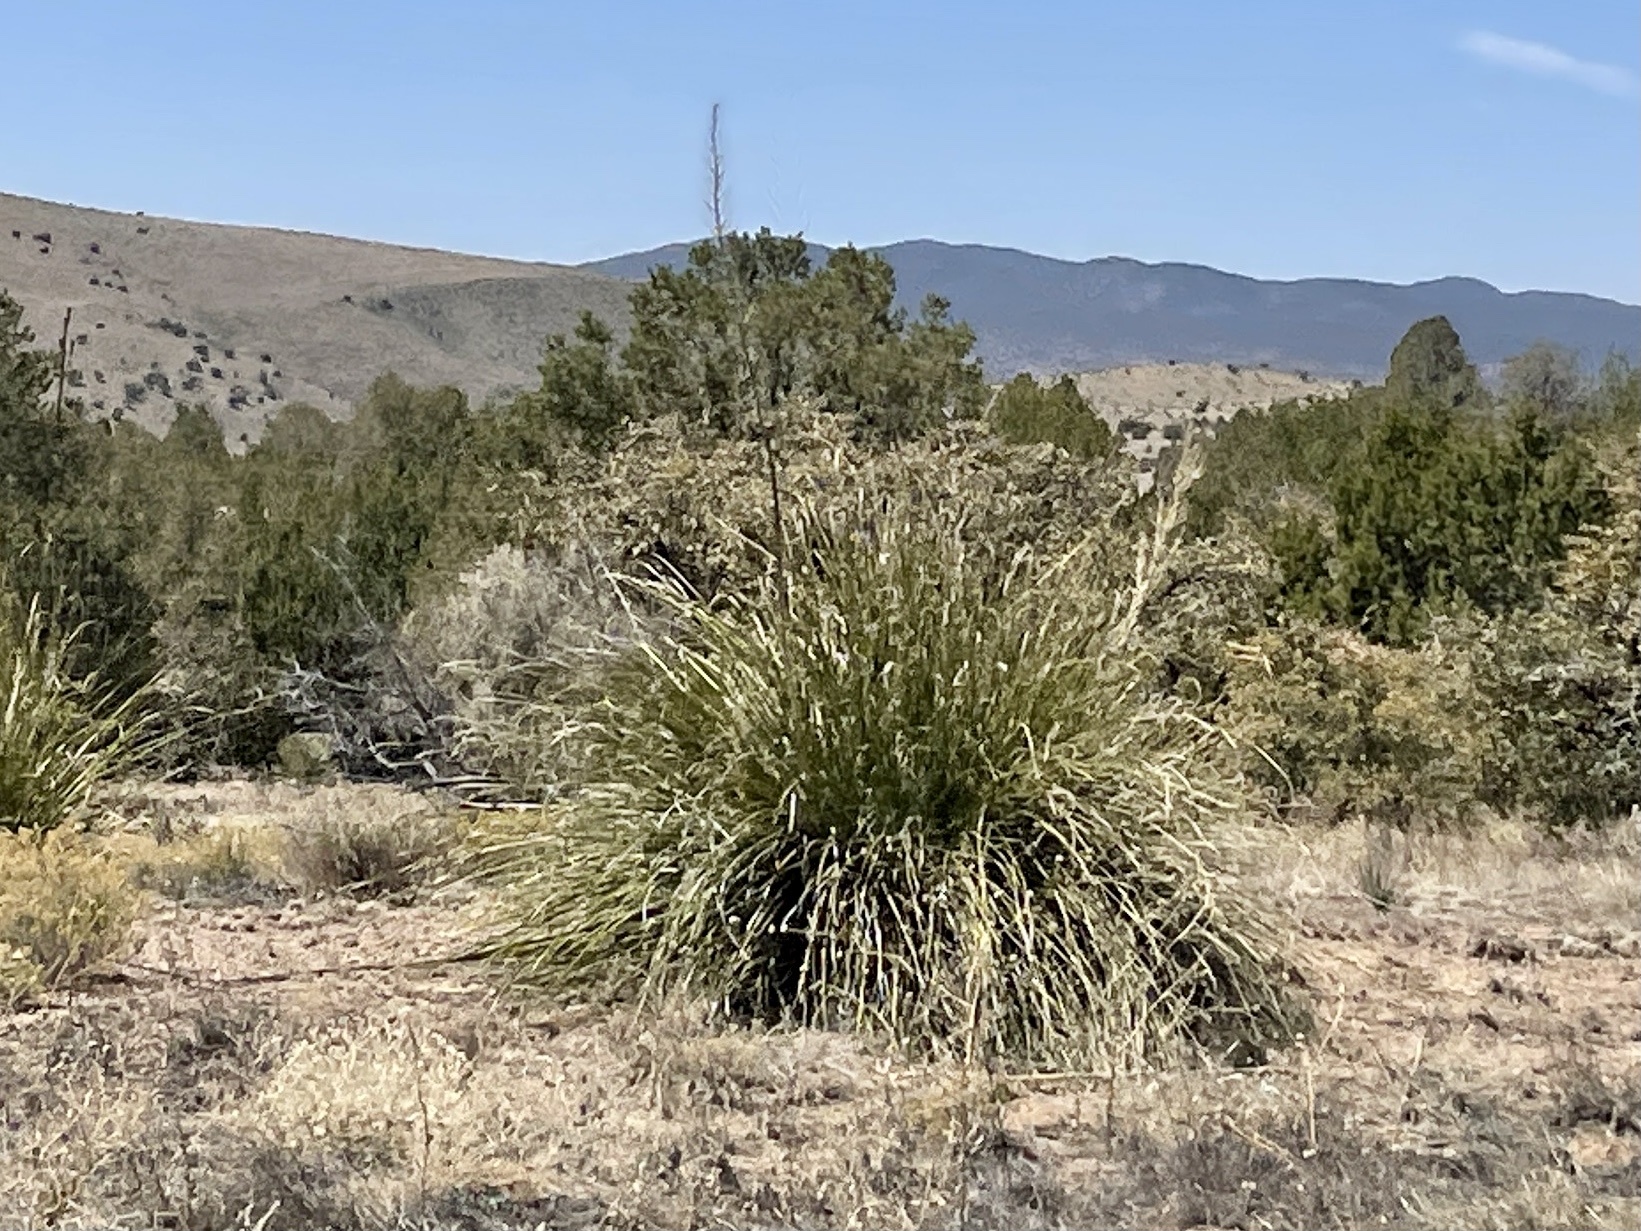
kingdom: Plantae
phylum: Tracheophyta
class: Liliopsida
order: Asparagales
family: Asparagaceae
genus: Nolina
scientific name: Nolina microcarpa
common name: Bear-grass
